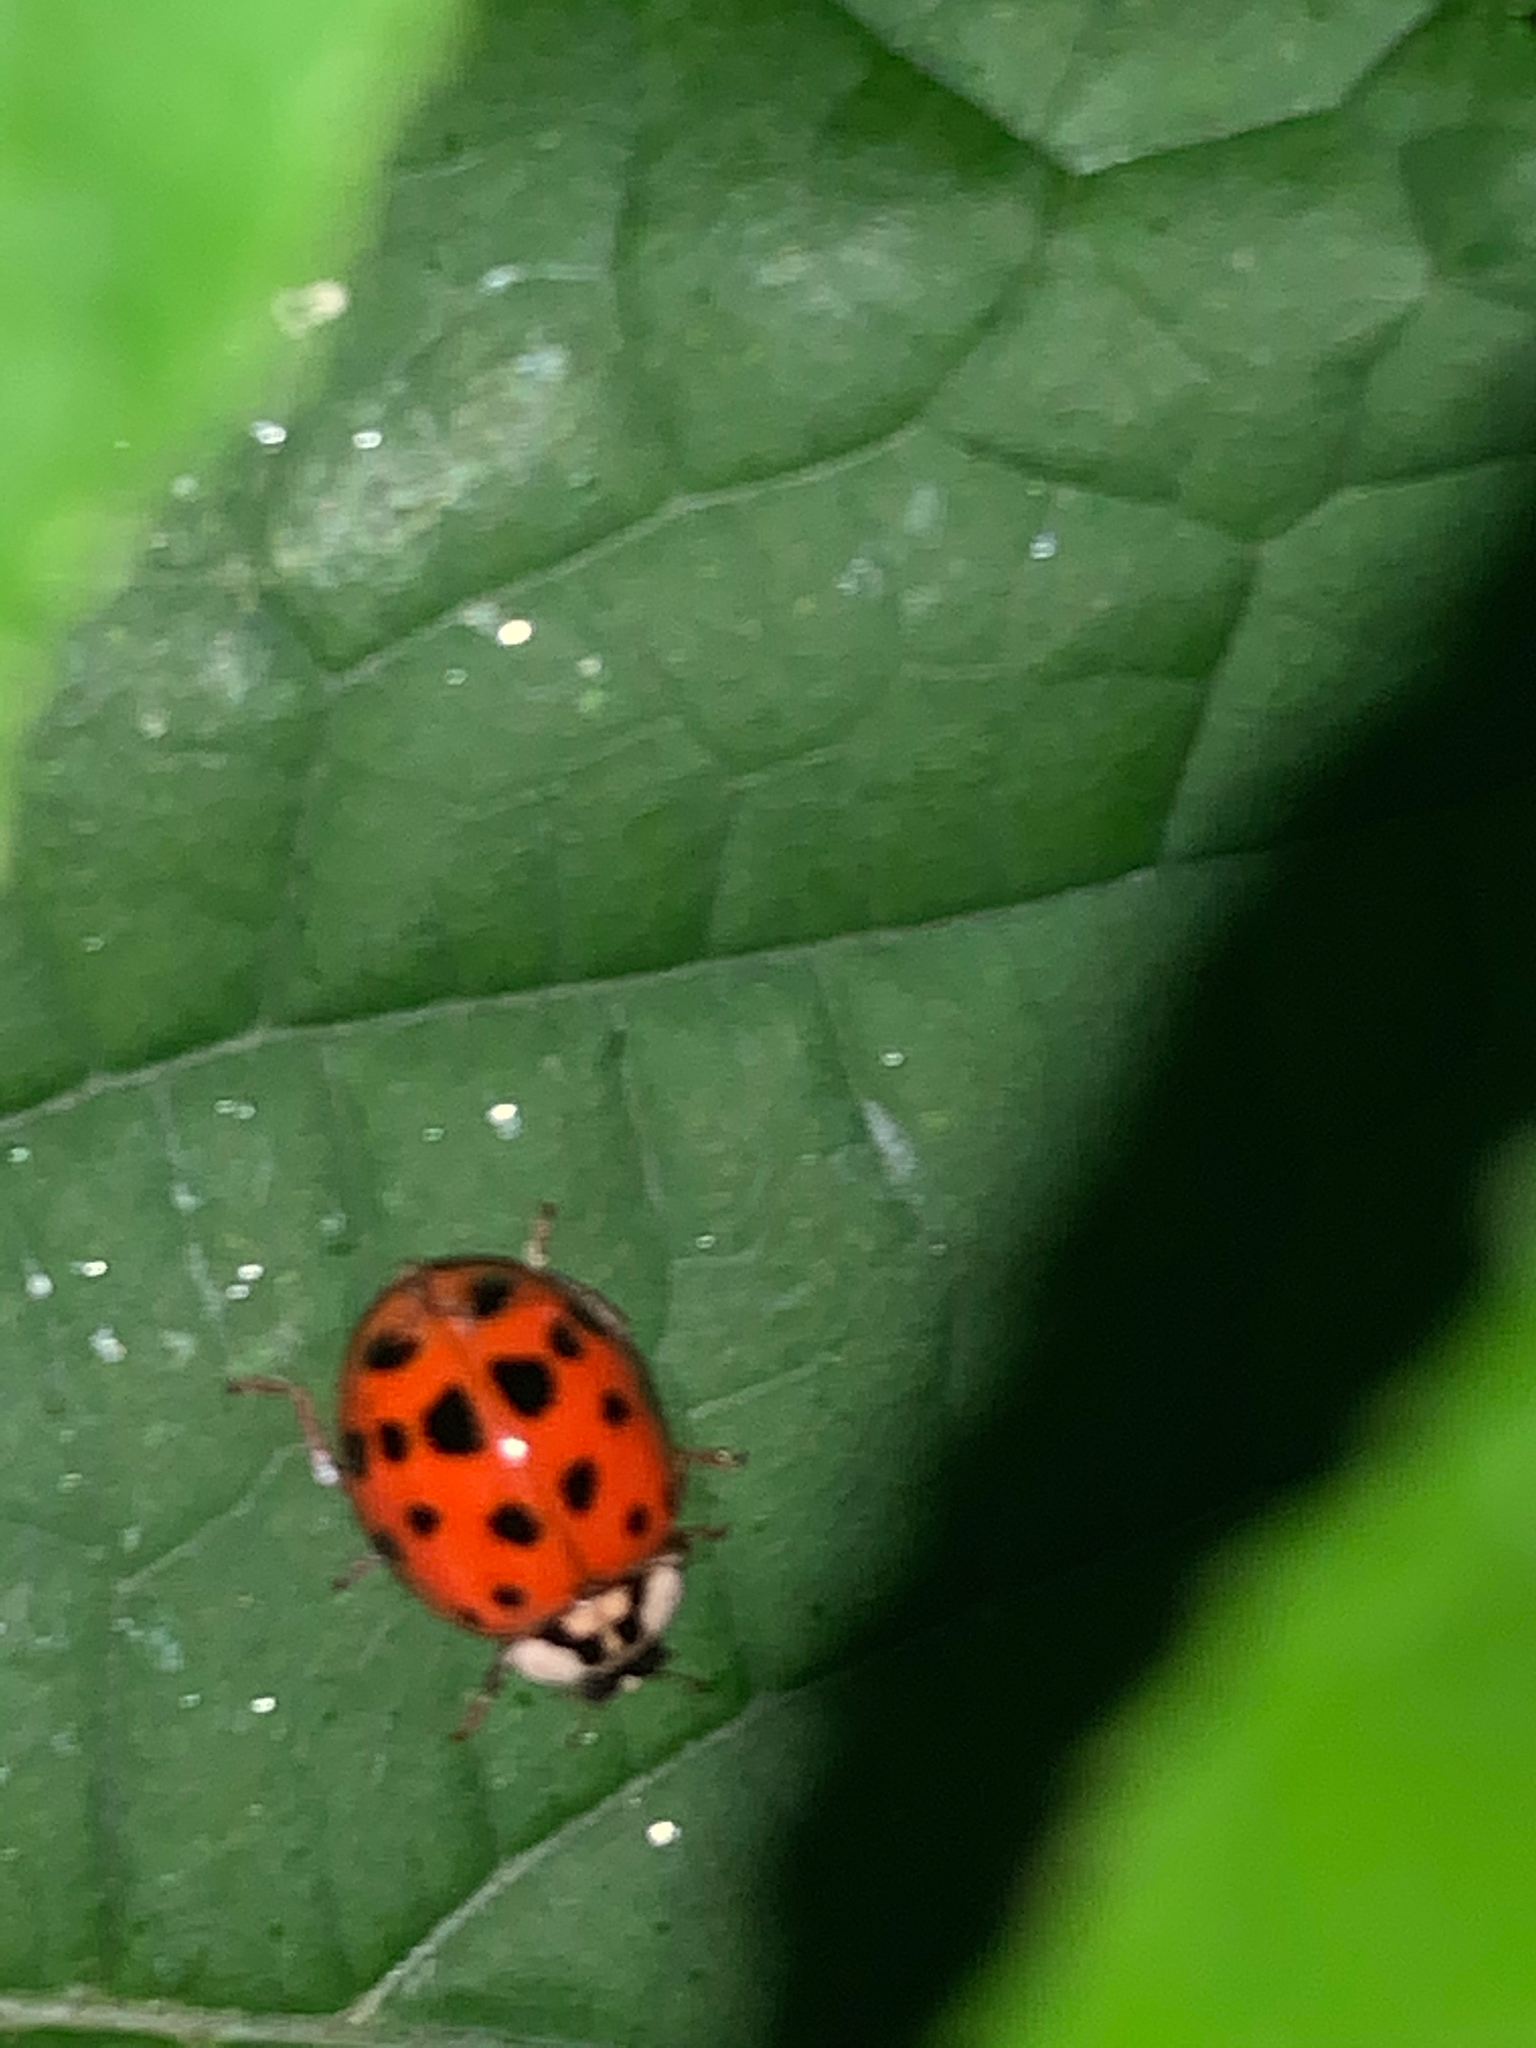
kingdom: Animalia
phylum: Arthropoda
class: Insecta
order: Coleoptera
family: Coccinellidae
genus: Harmonia
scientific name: Harmonia axyridis
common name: Harlequin ladybird
